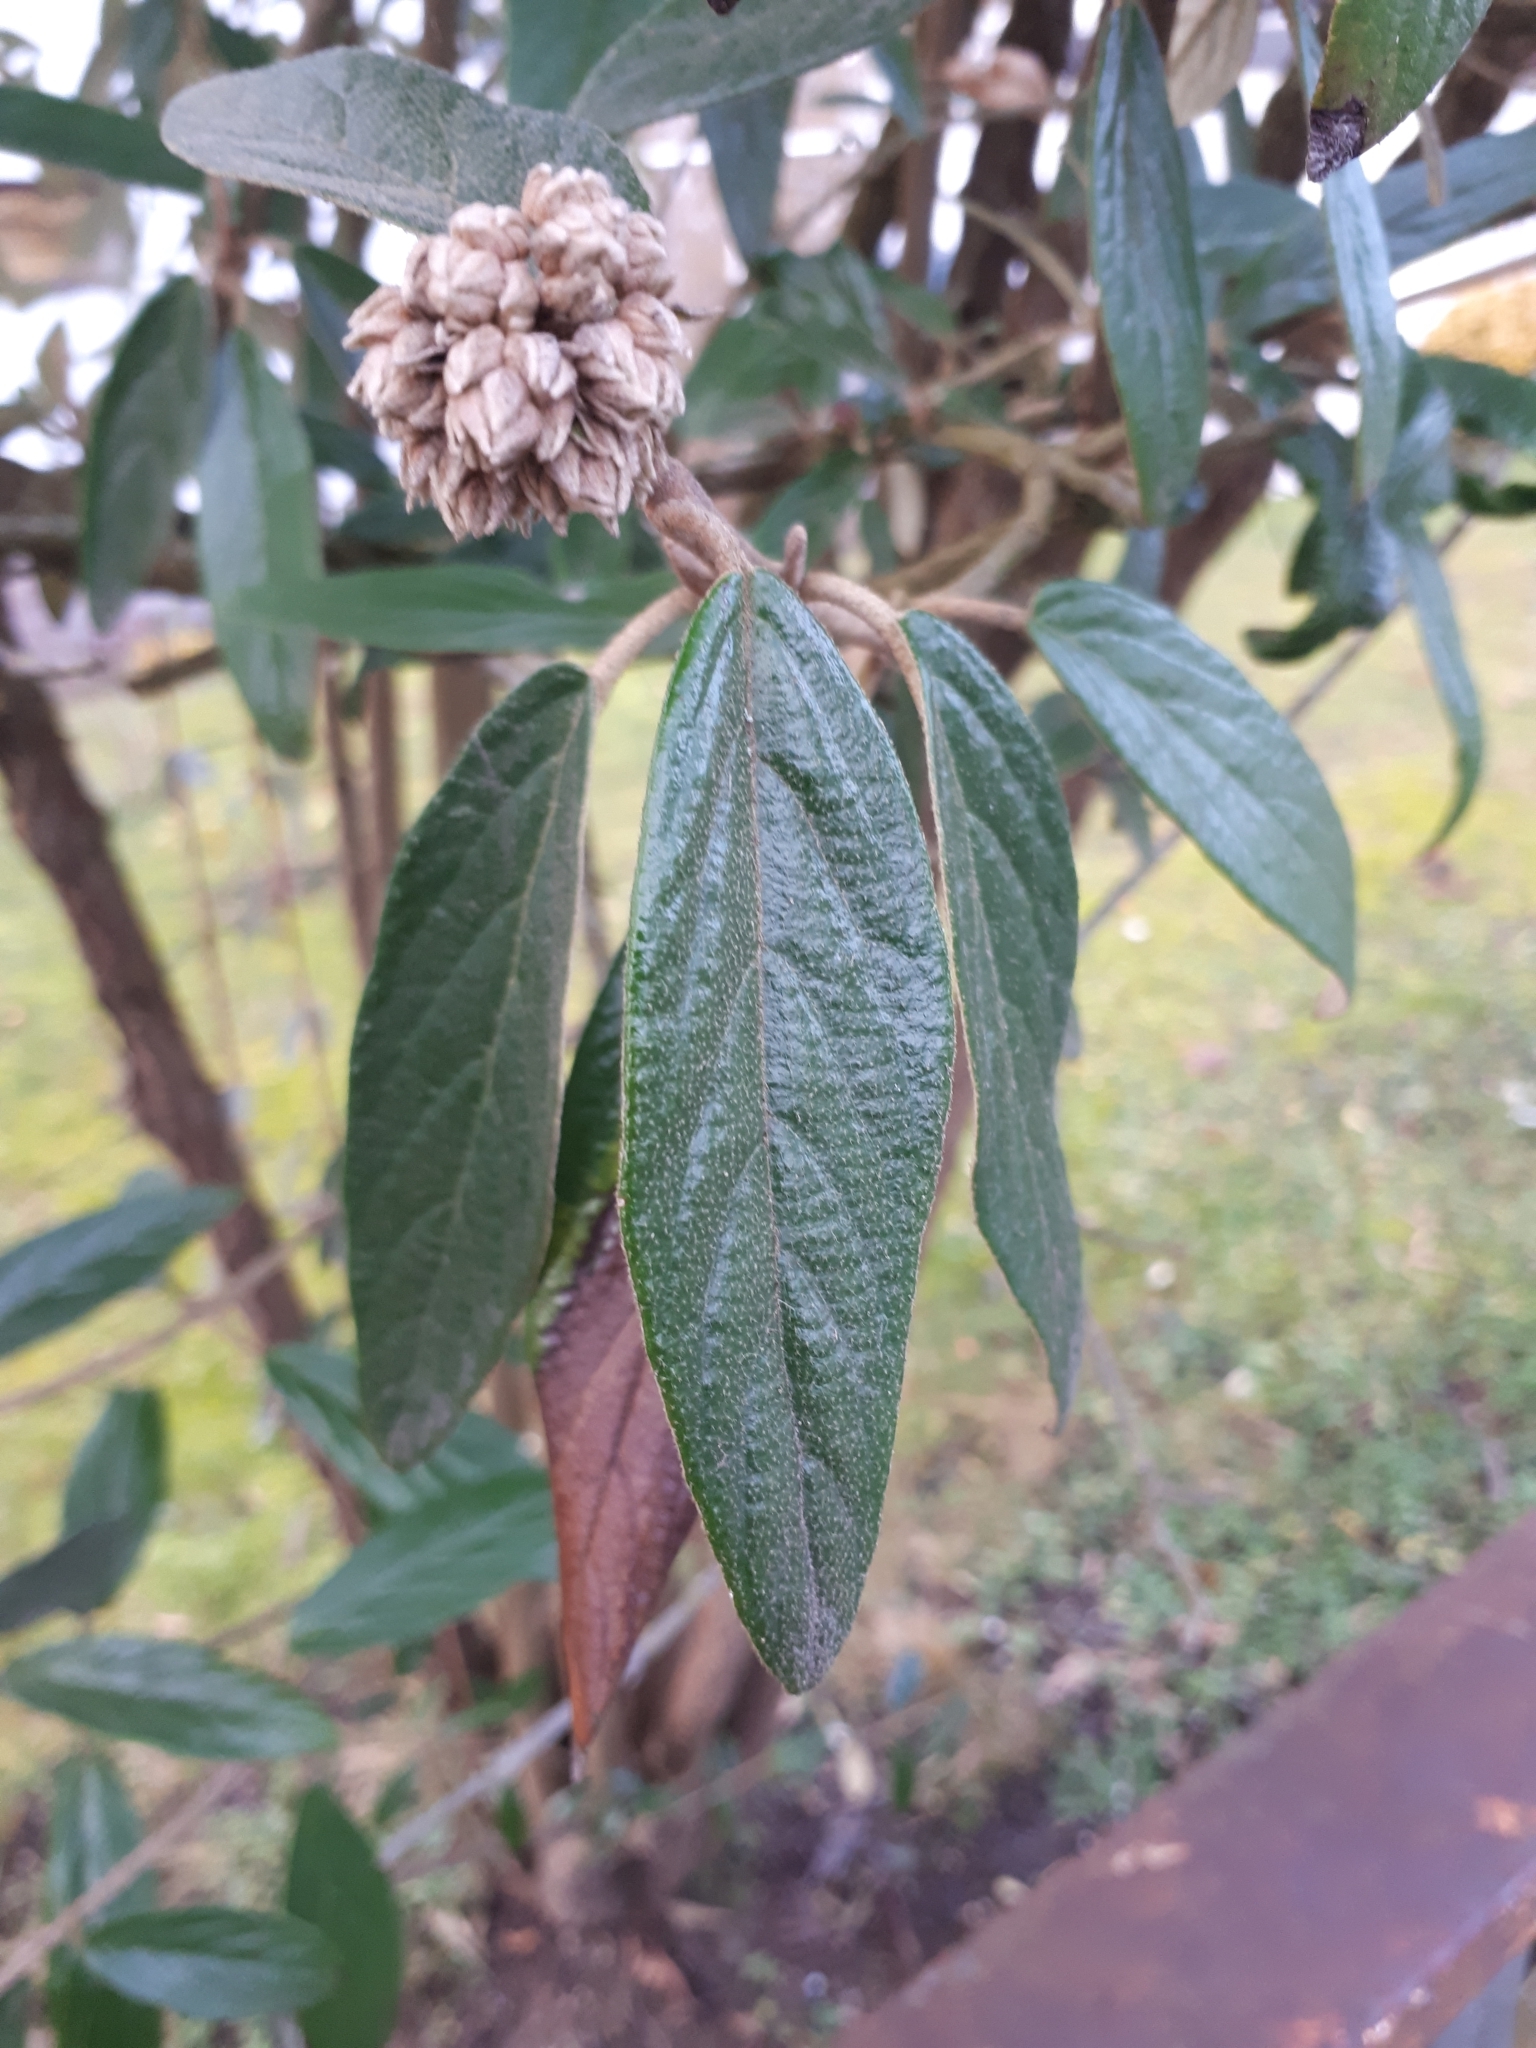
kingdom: Plantae
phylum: Tracheophyta
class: Magnoliopsida
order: Dipsacales
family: Viburnaceae
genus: Viburnum
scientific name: Viburnum rhytidophyllum
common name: Wrinkled viburnum
